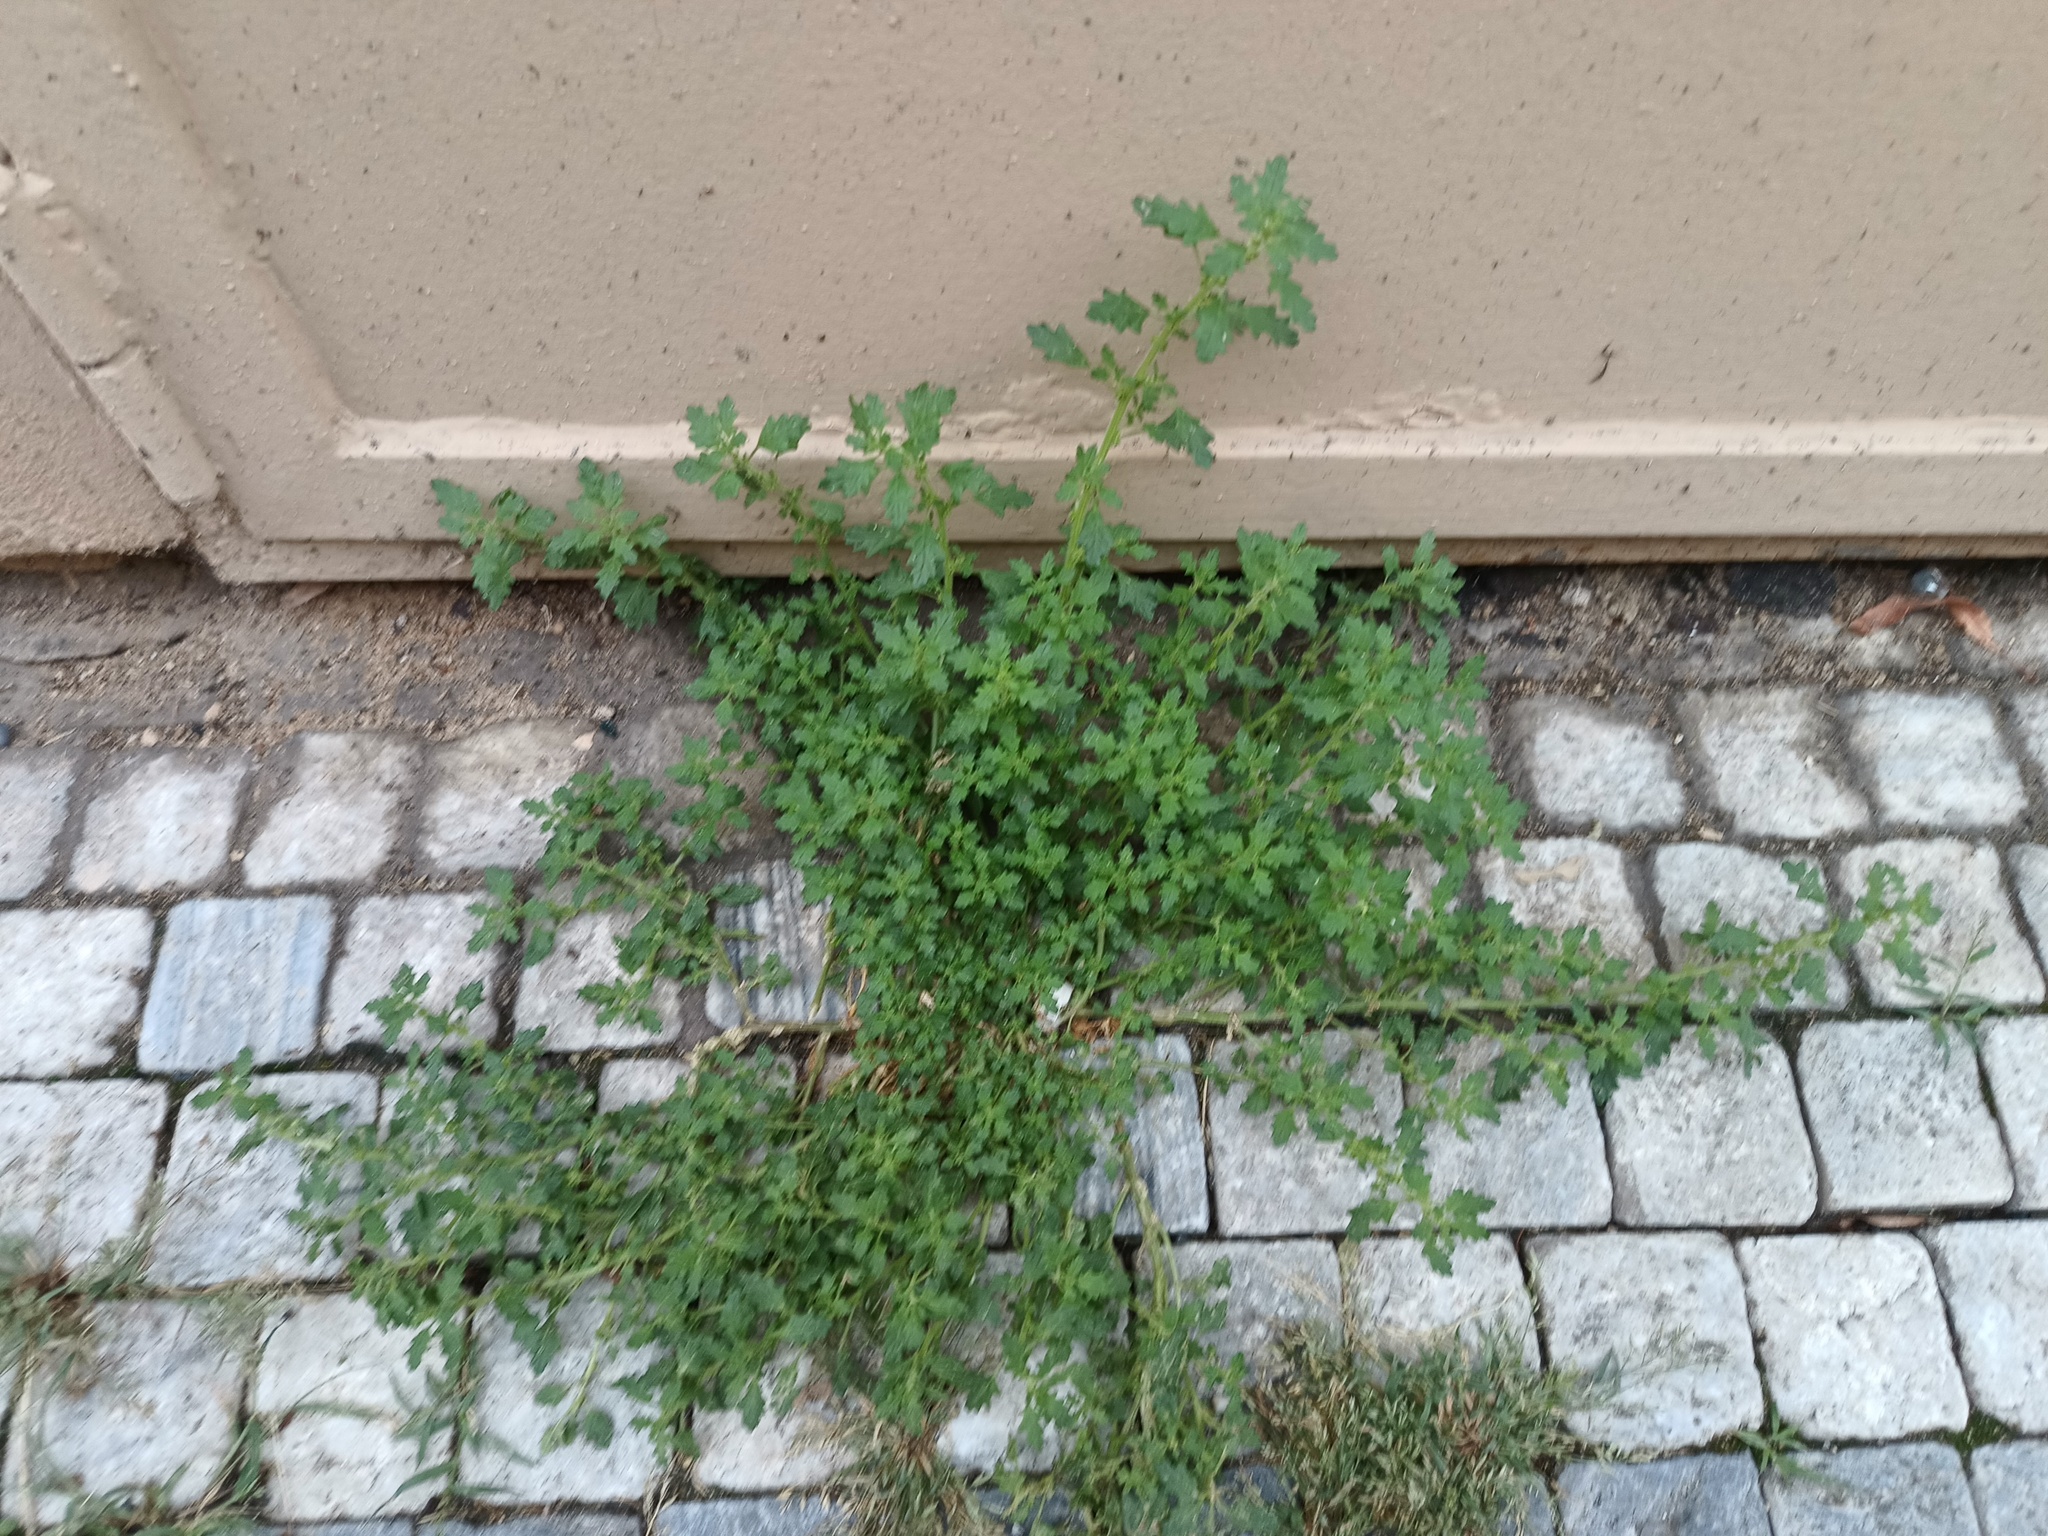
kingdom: Plantae
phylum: Tracheophyta
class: Magnoliopsida
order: Caryophyllales
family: Amaranthaceae
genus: Dysphania
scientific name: Dysphania pumilio
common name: Clammy goosefoot
